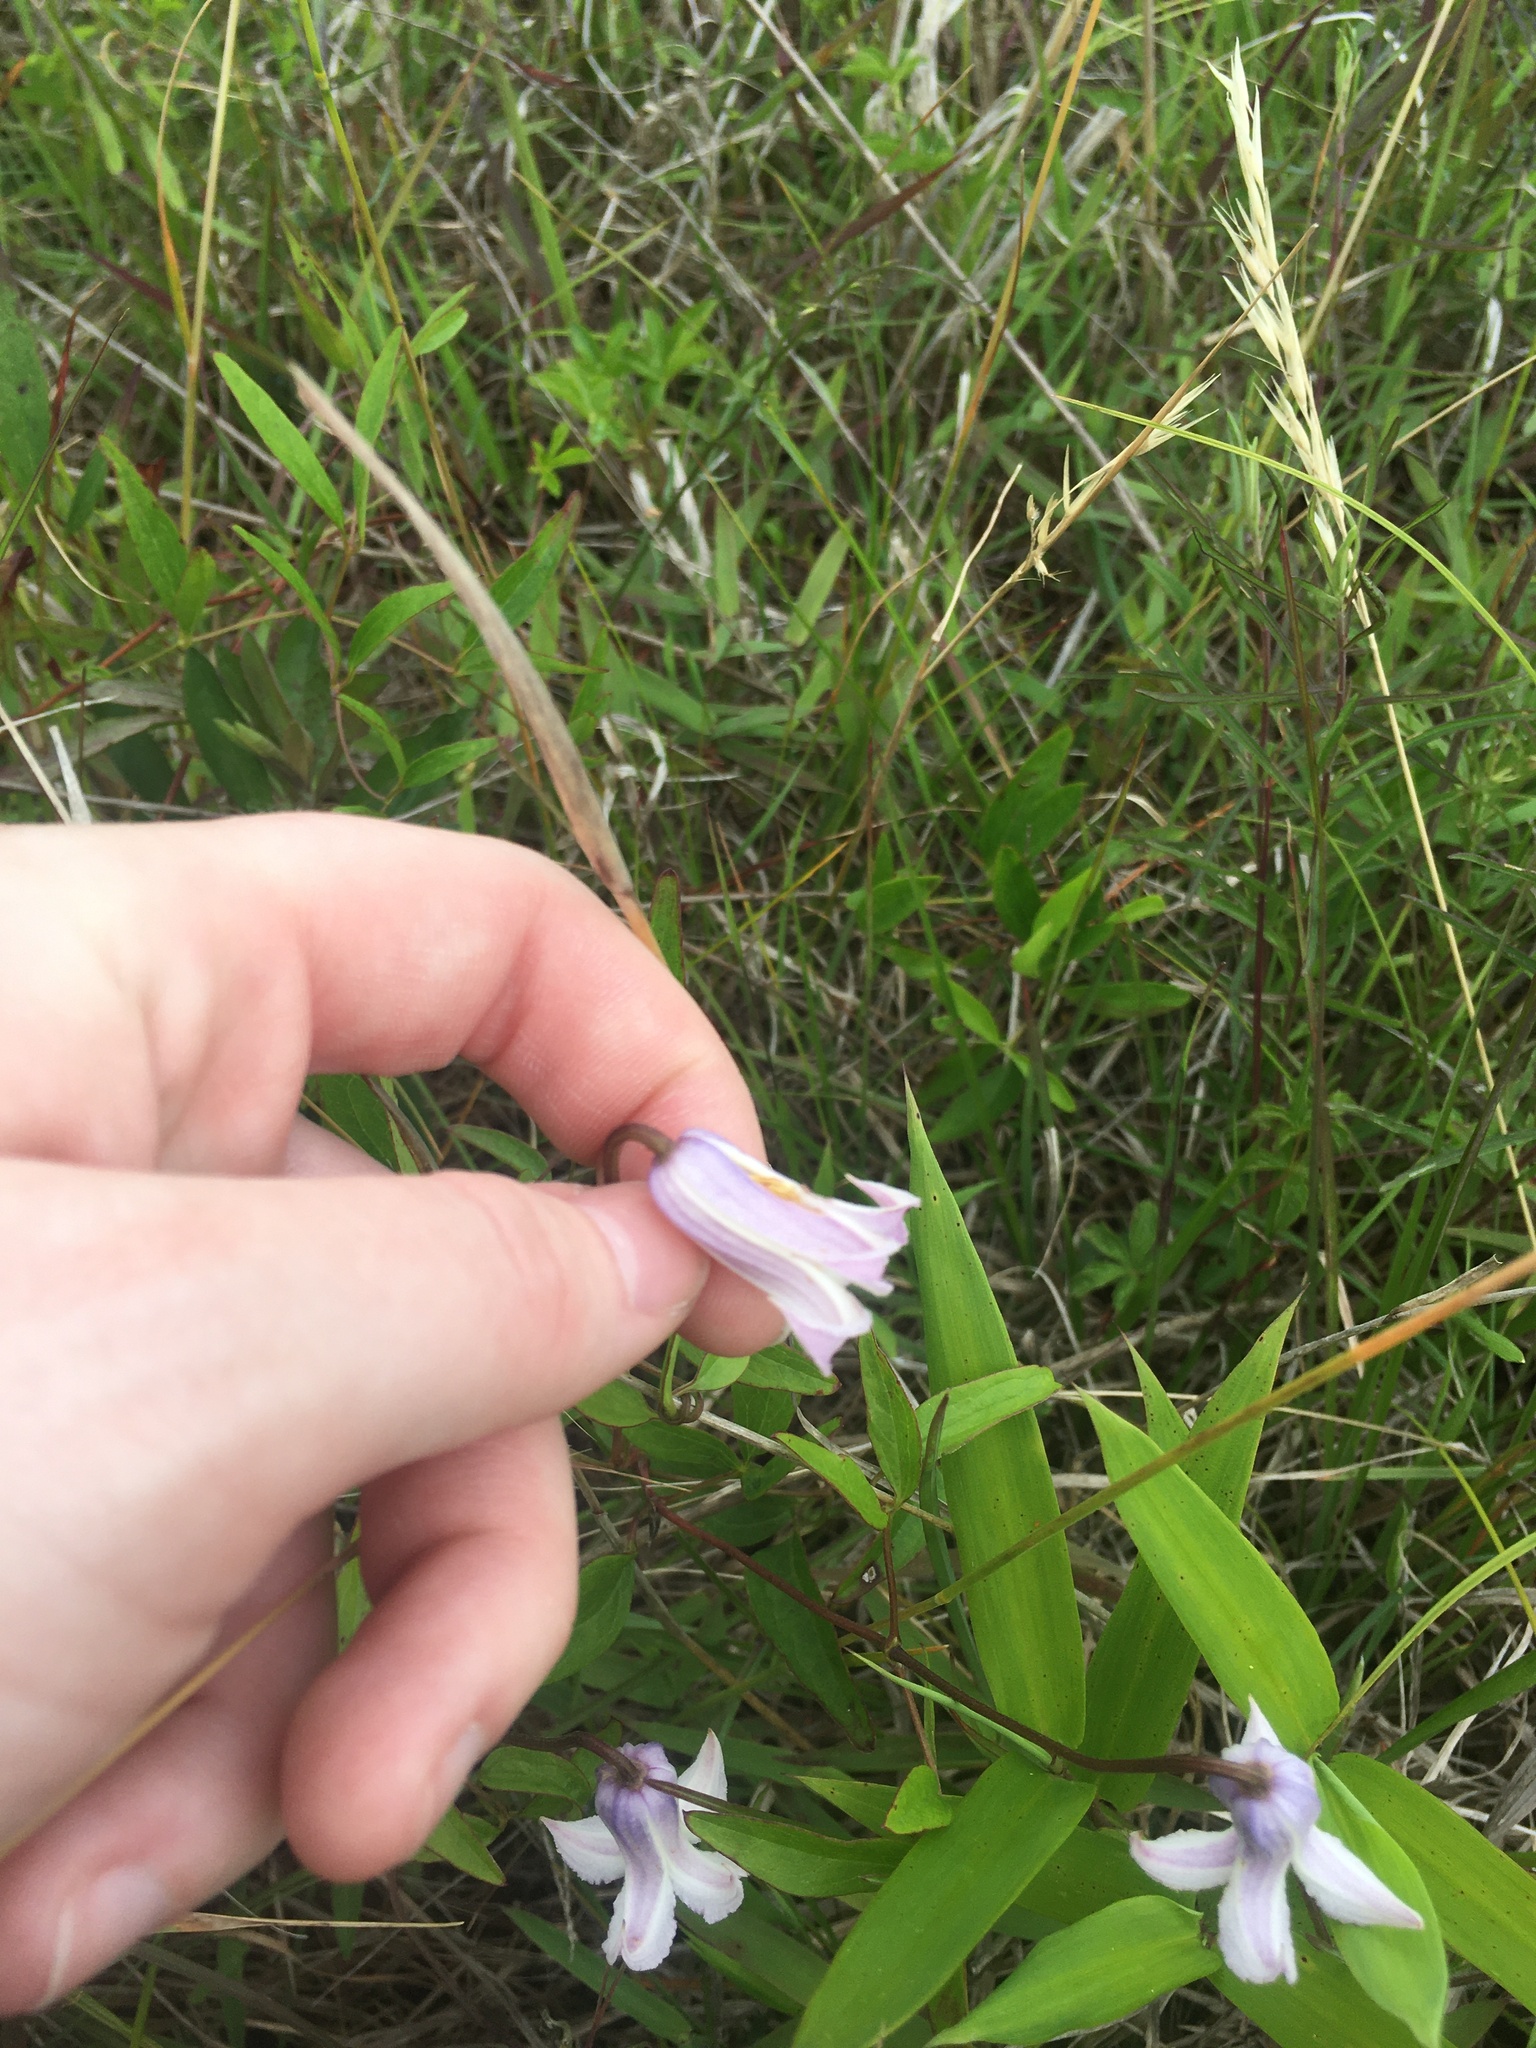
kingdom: Plantae
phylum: Tracheophyta
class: Magnoliopsida
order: Ranunculales
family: Ranunculaceae
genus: Clematis
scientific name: Clematis crispa
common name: Curly clematis
